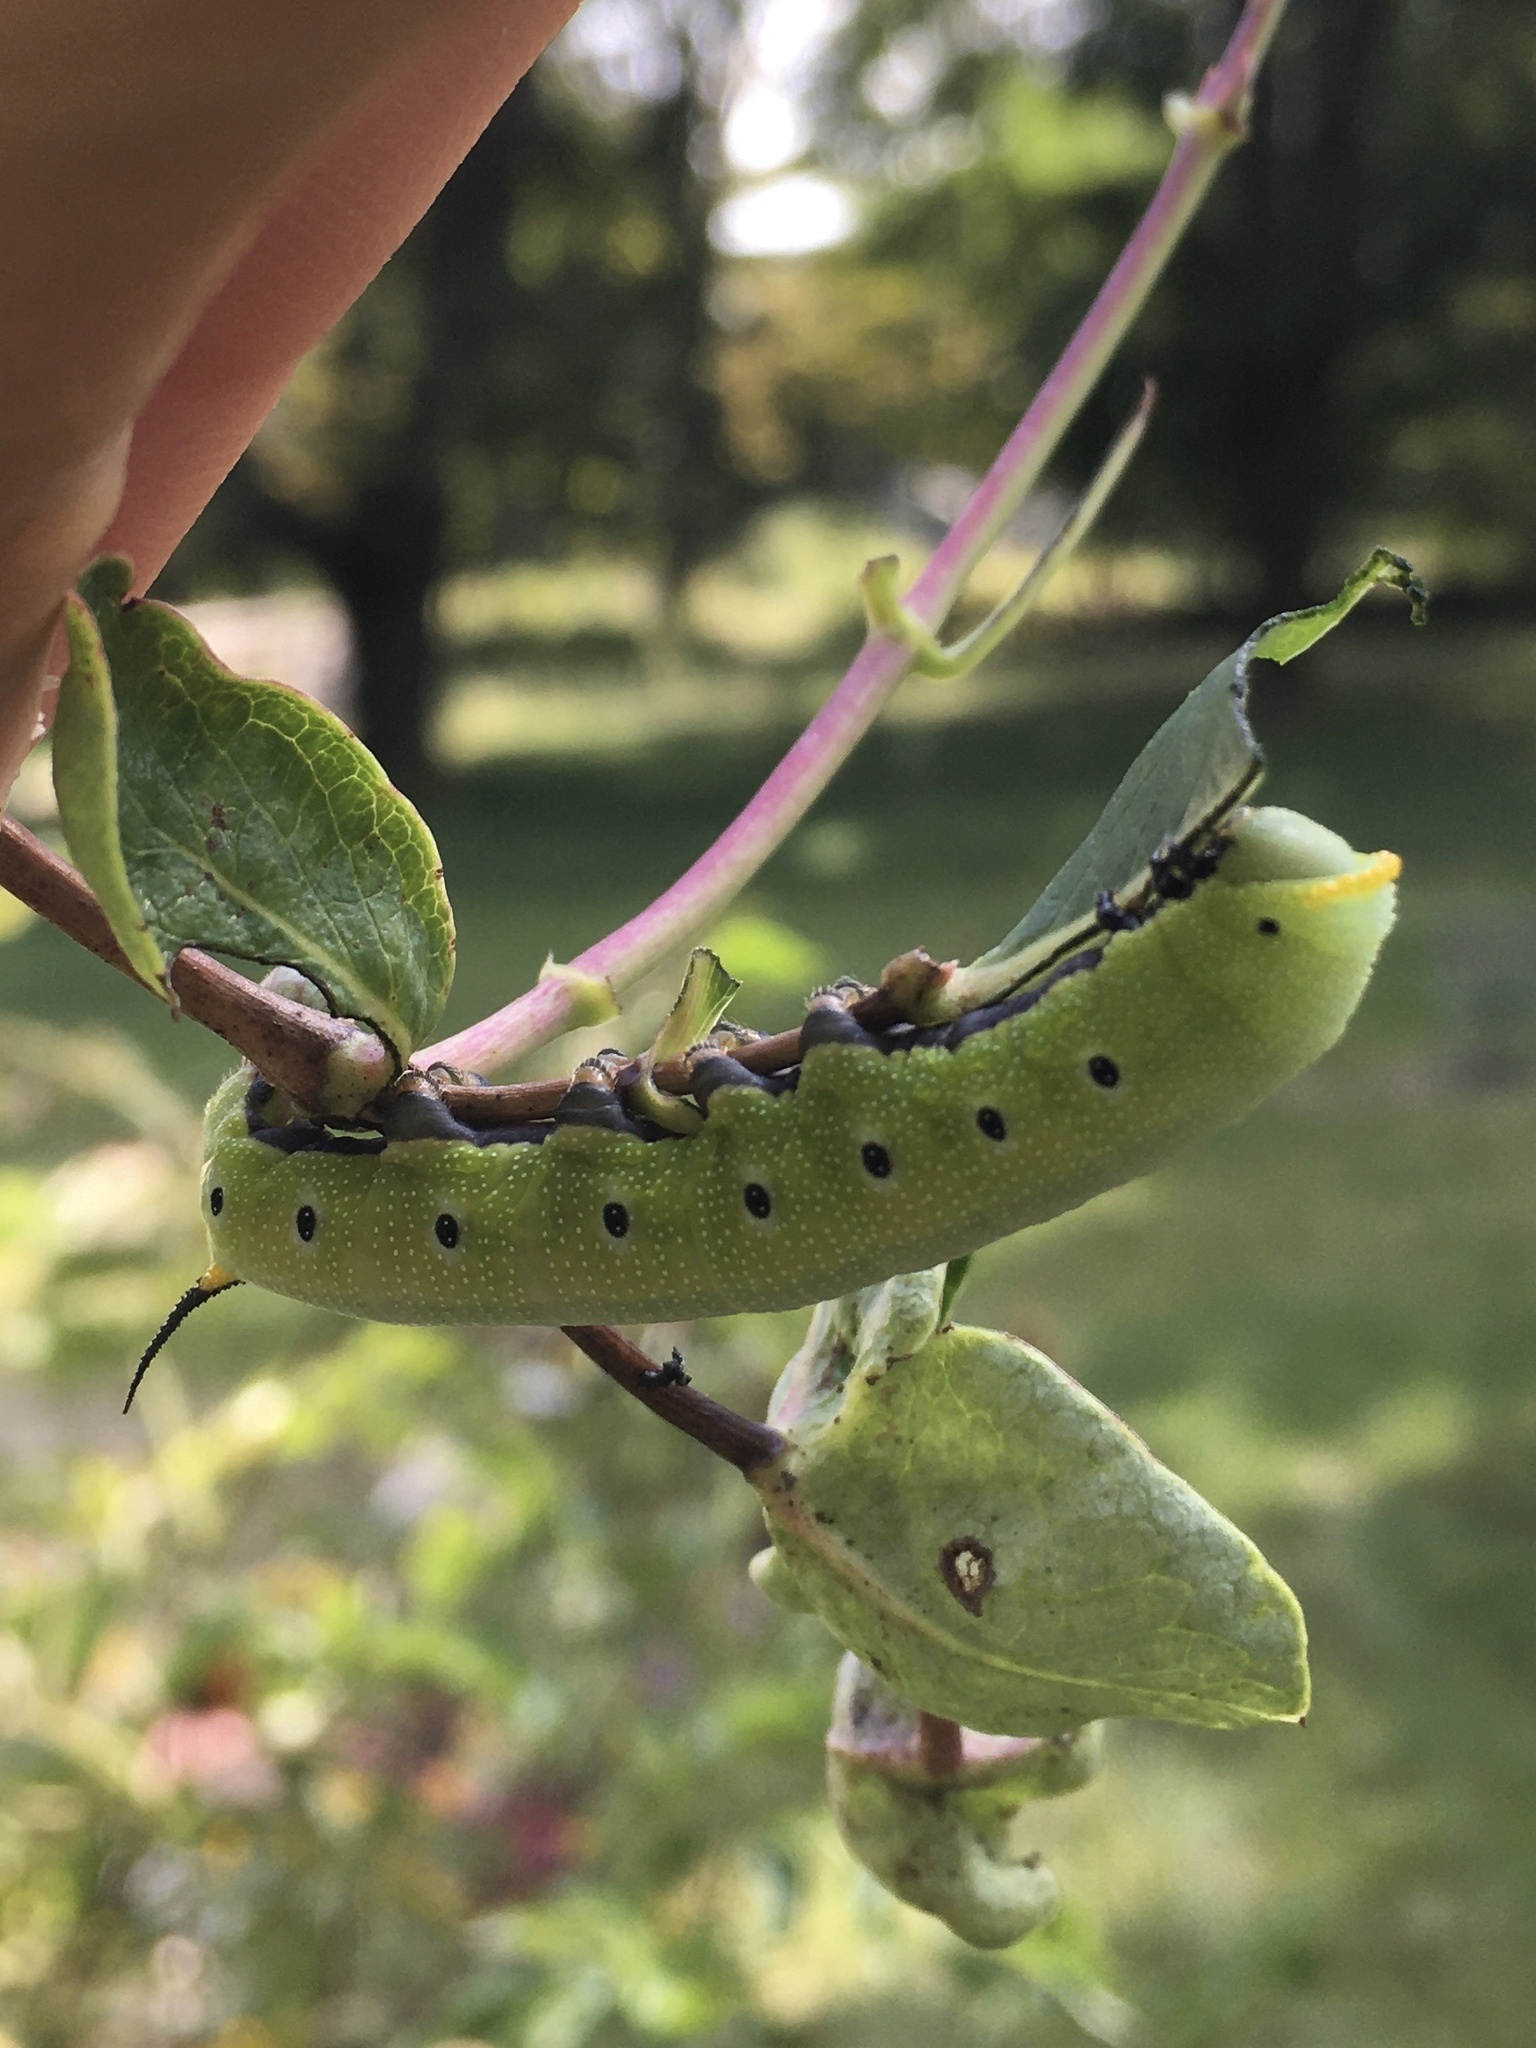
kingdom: Animalia
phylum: Arthropoda
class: Insecta
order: Lepidoptera
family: Sphingidae
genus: Hemaris
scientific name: Hemaris diffinis
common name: Bumblebee moth
